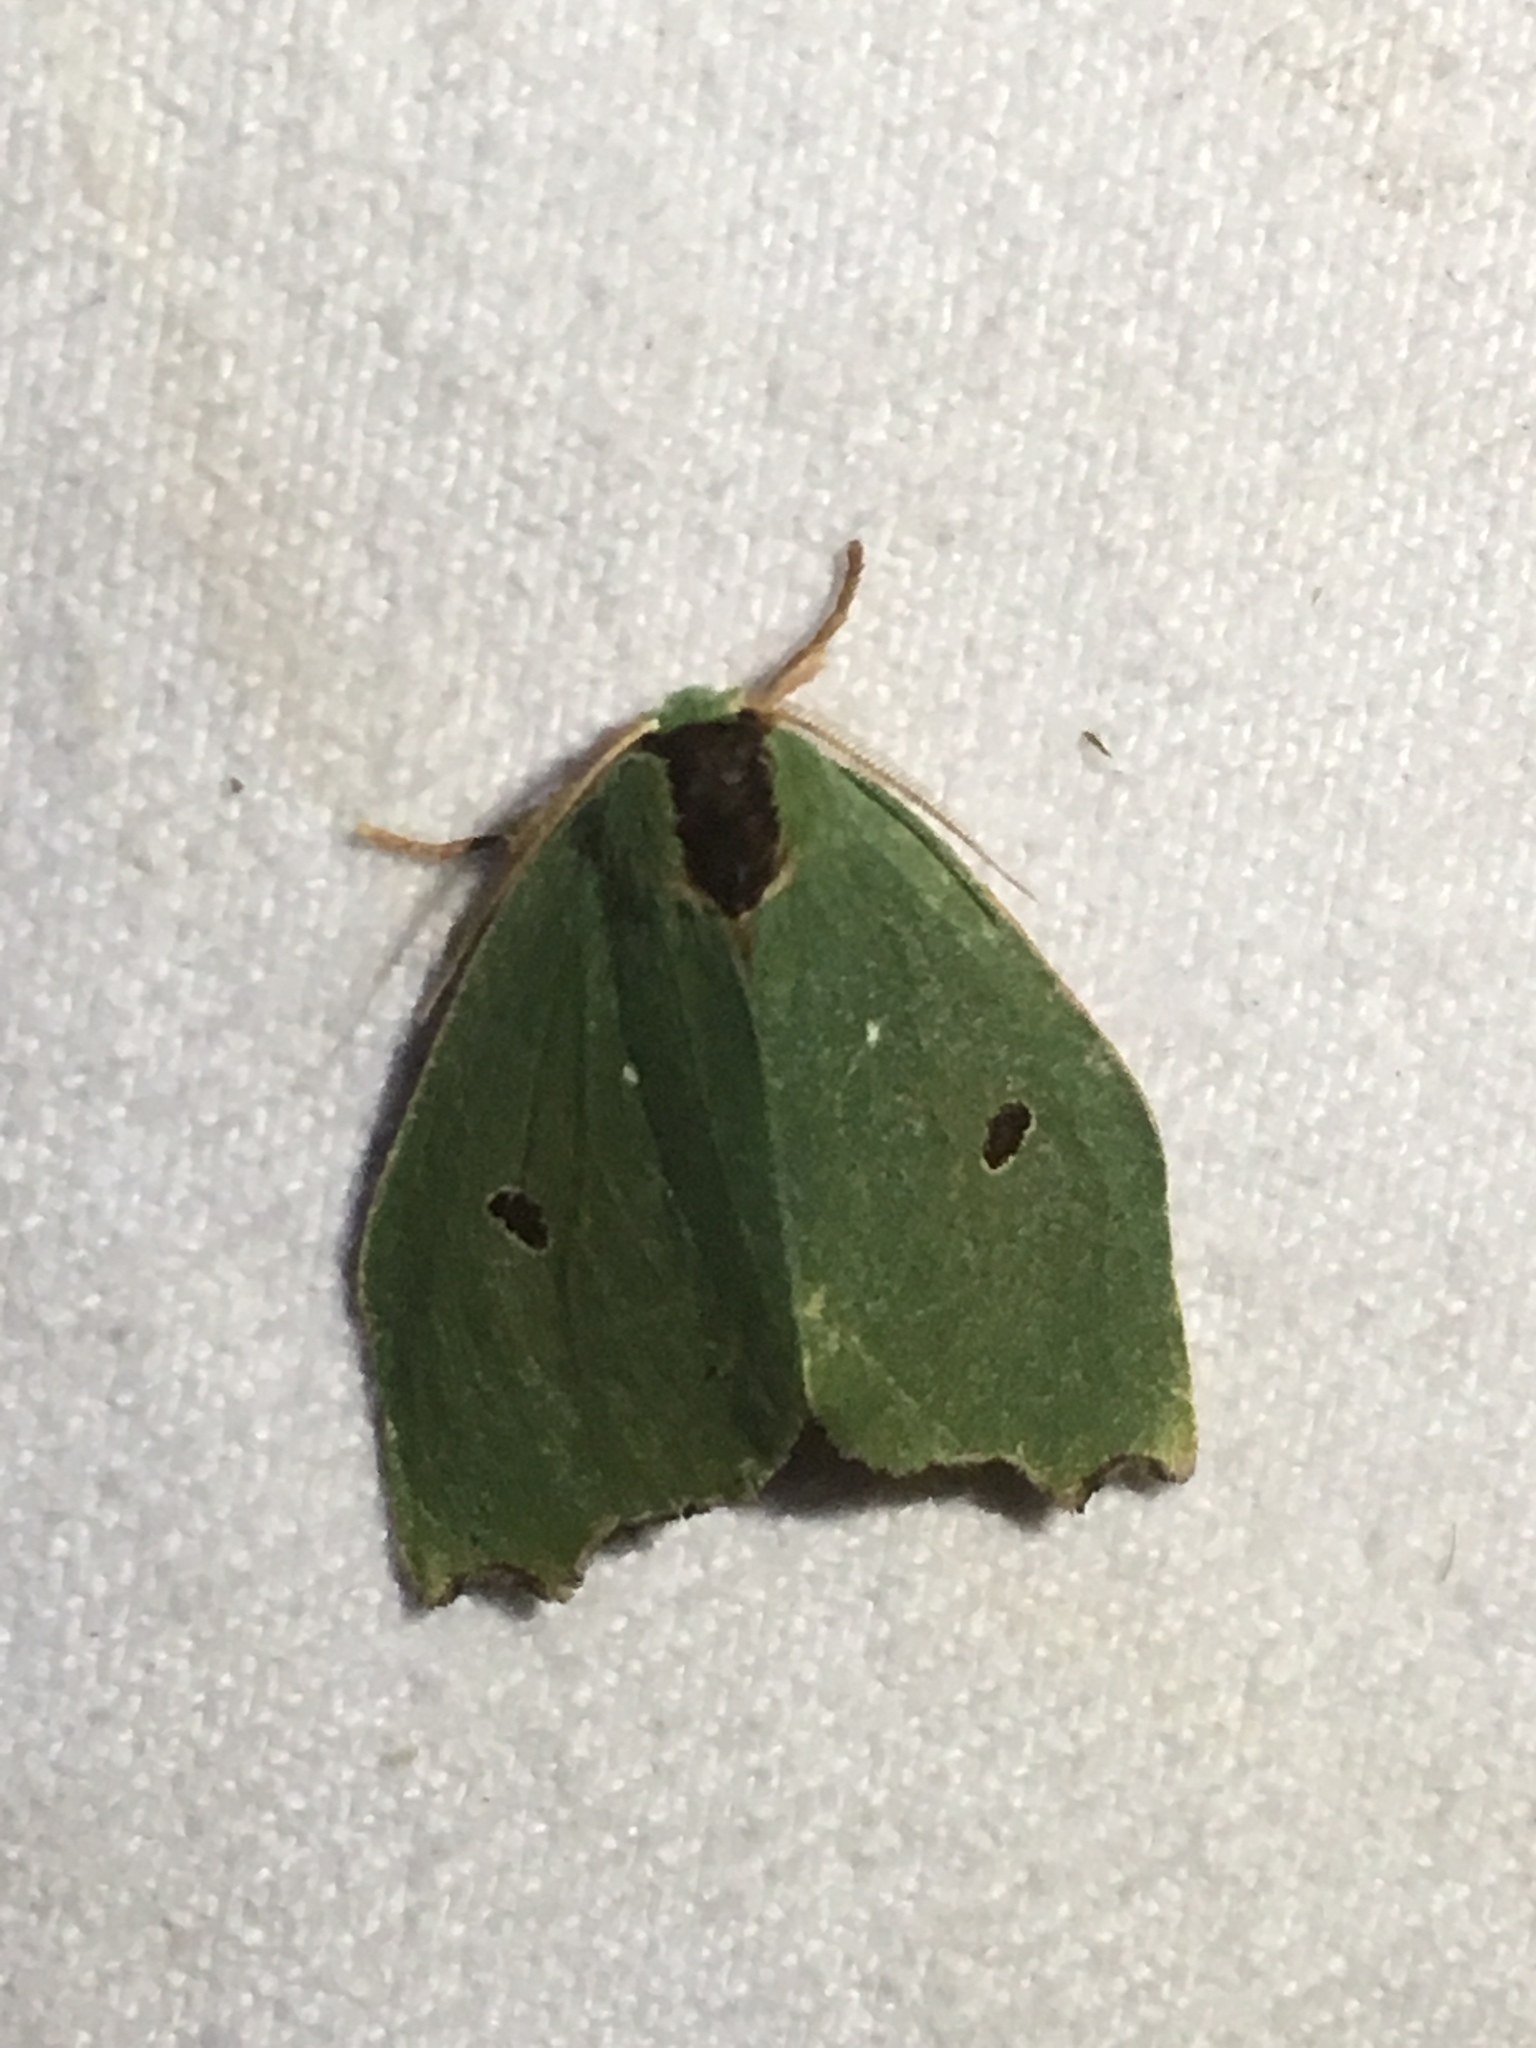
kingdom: Animalia
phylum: Arthropoda
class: Insecta
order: Lepidoptera
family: Notodontidae
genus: Rosema
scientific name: Rosema attenuata
